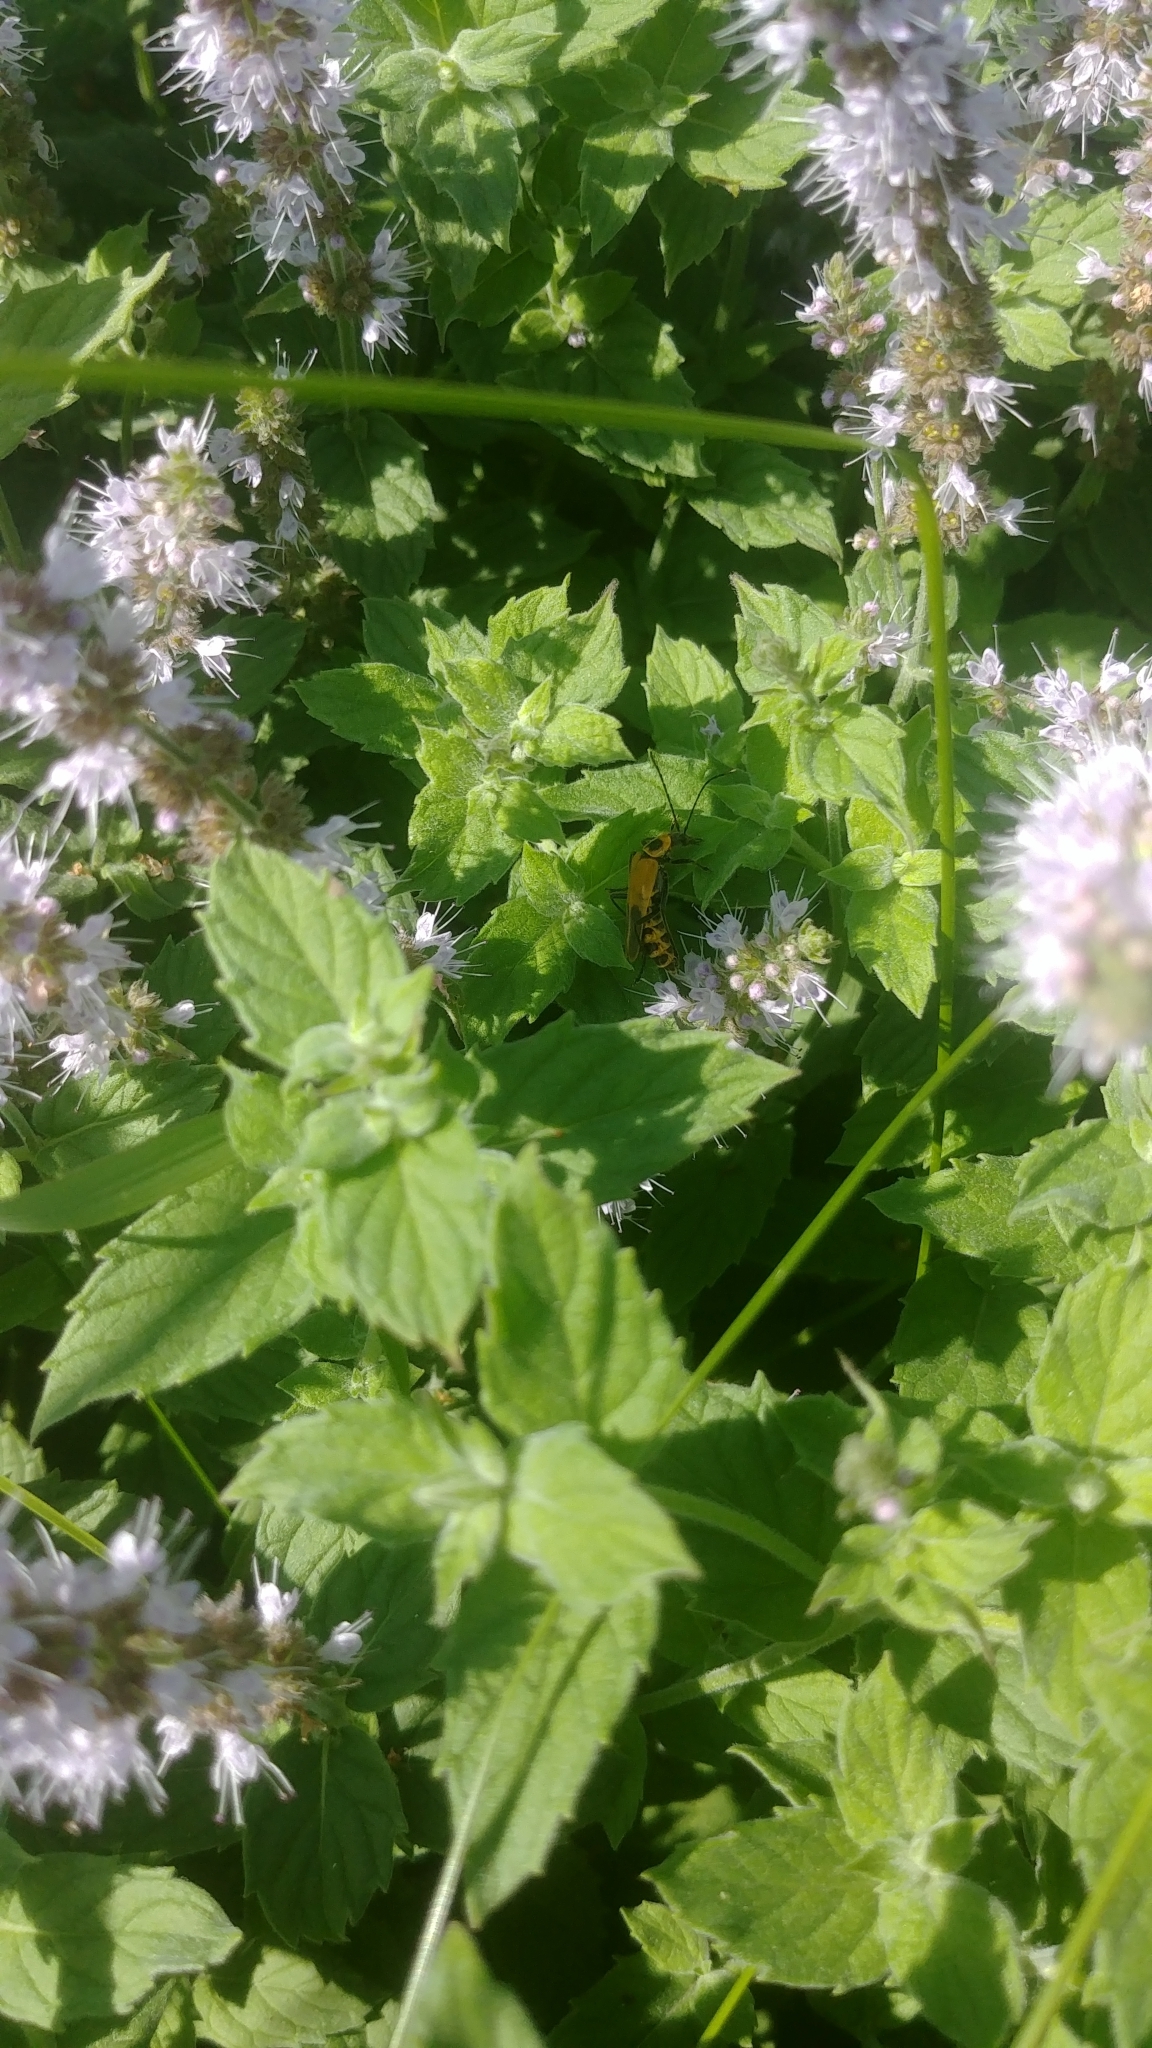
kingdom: Animalia
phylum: Arthropoda
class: Insecta
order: Coleoptera
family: Cantharidae
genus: Chauliognathus
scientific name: Chauliognathus pensylvanicus
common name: Goldenrod soldier beetle
